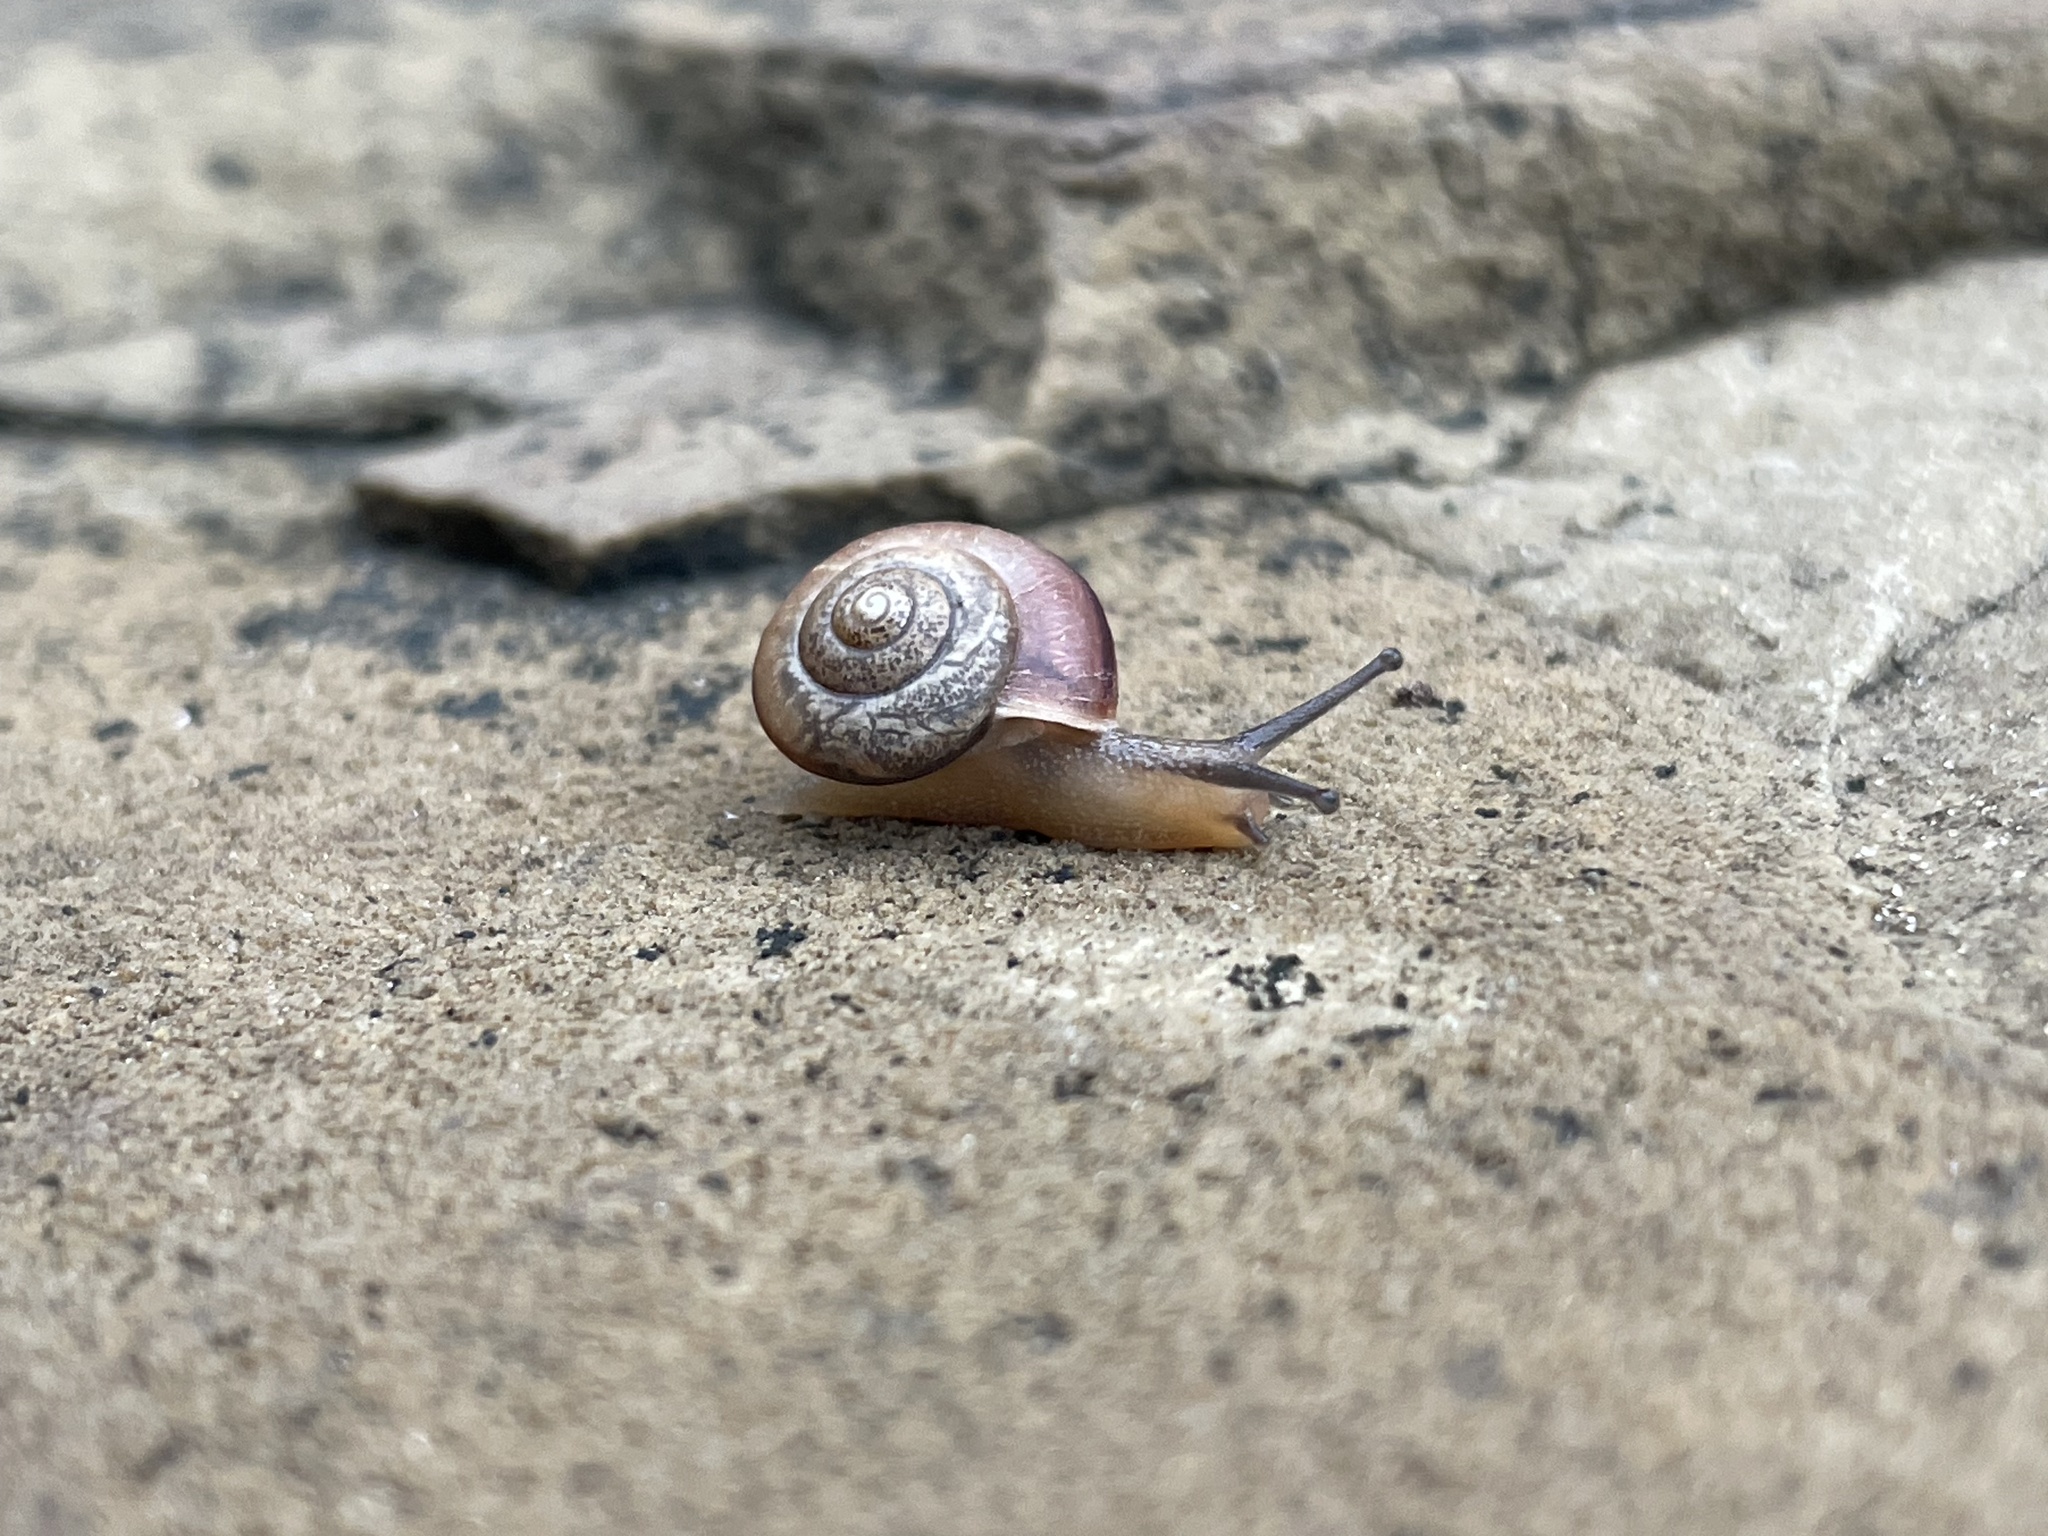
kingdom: Animalia
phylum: Mollusca
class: Gastropoda
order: Stylommatophora
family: Camaenidae
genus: Bradybaena
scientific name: Bradybaena similaris
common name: Asian trampsnail
